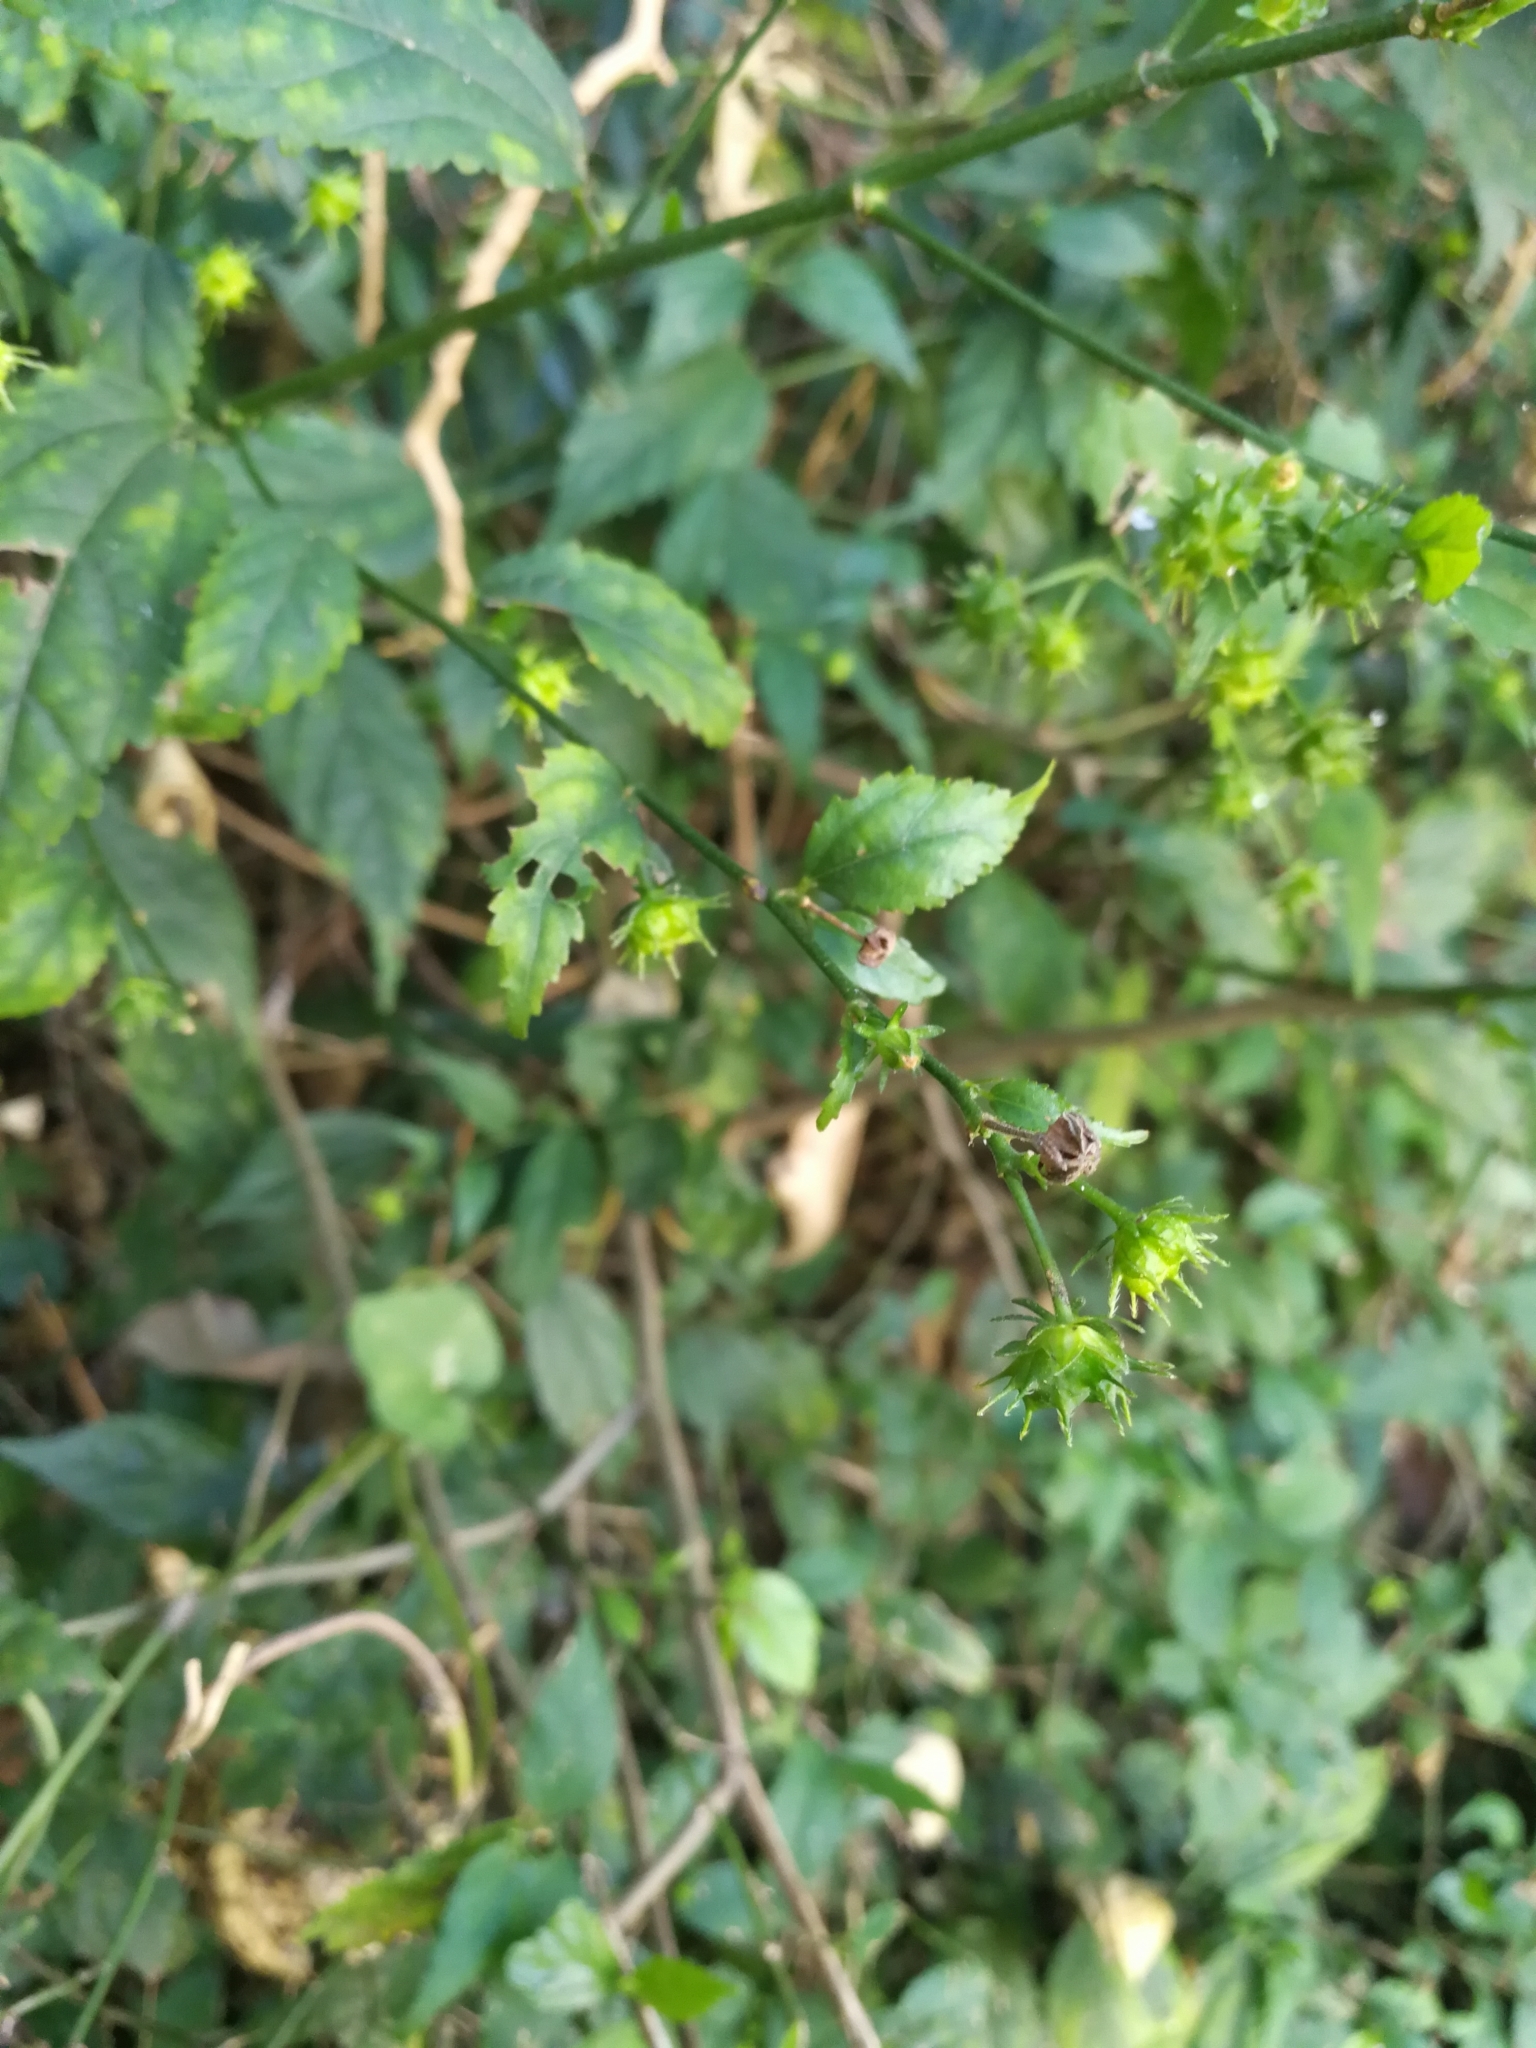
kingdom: Plantae
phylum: Tracheophyta
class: Magnoliopsida
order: Malvales
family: Malvaceae
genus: Pavonia
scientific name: Pavonia sepium
